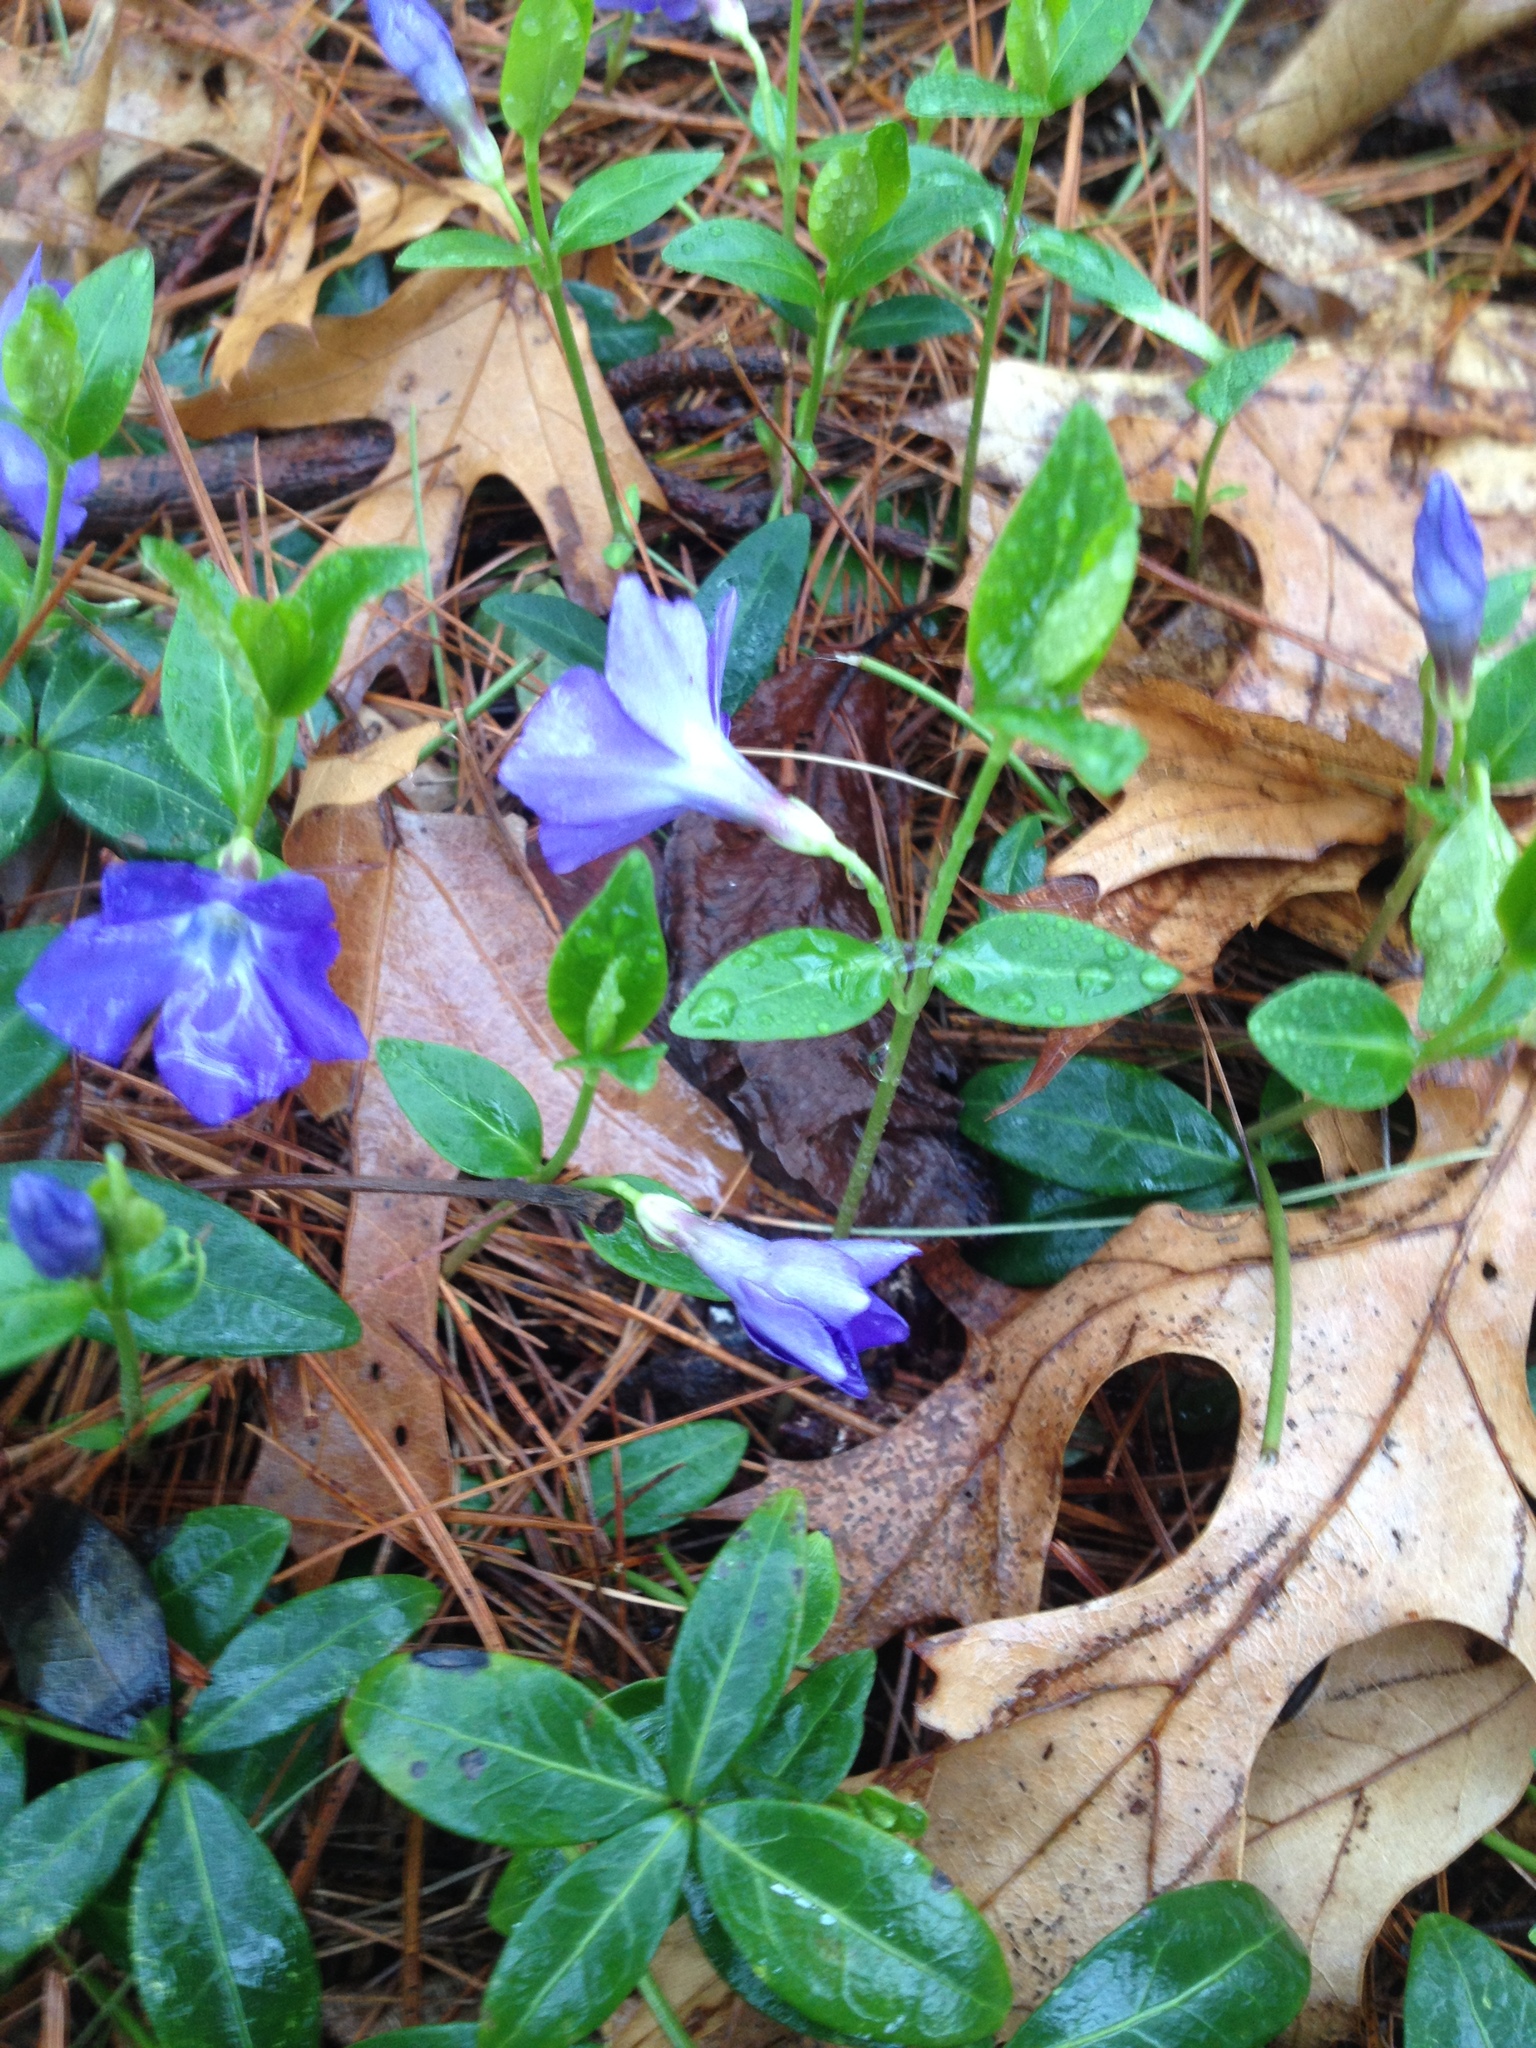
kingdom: Plantae
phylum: Tracheophyta
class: Magnoliopsida
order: Gentianales
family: Apocynaceae
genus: Vinca
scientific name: Vinca minor
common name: Lesser periwinkle
